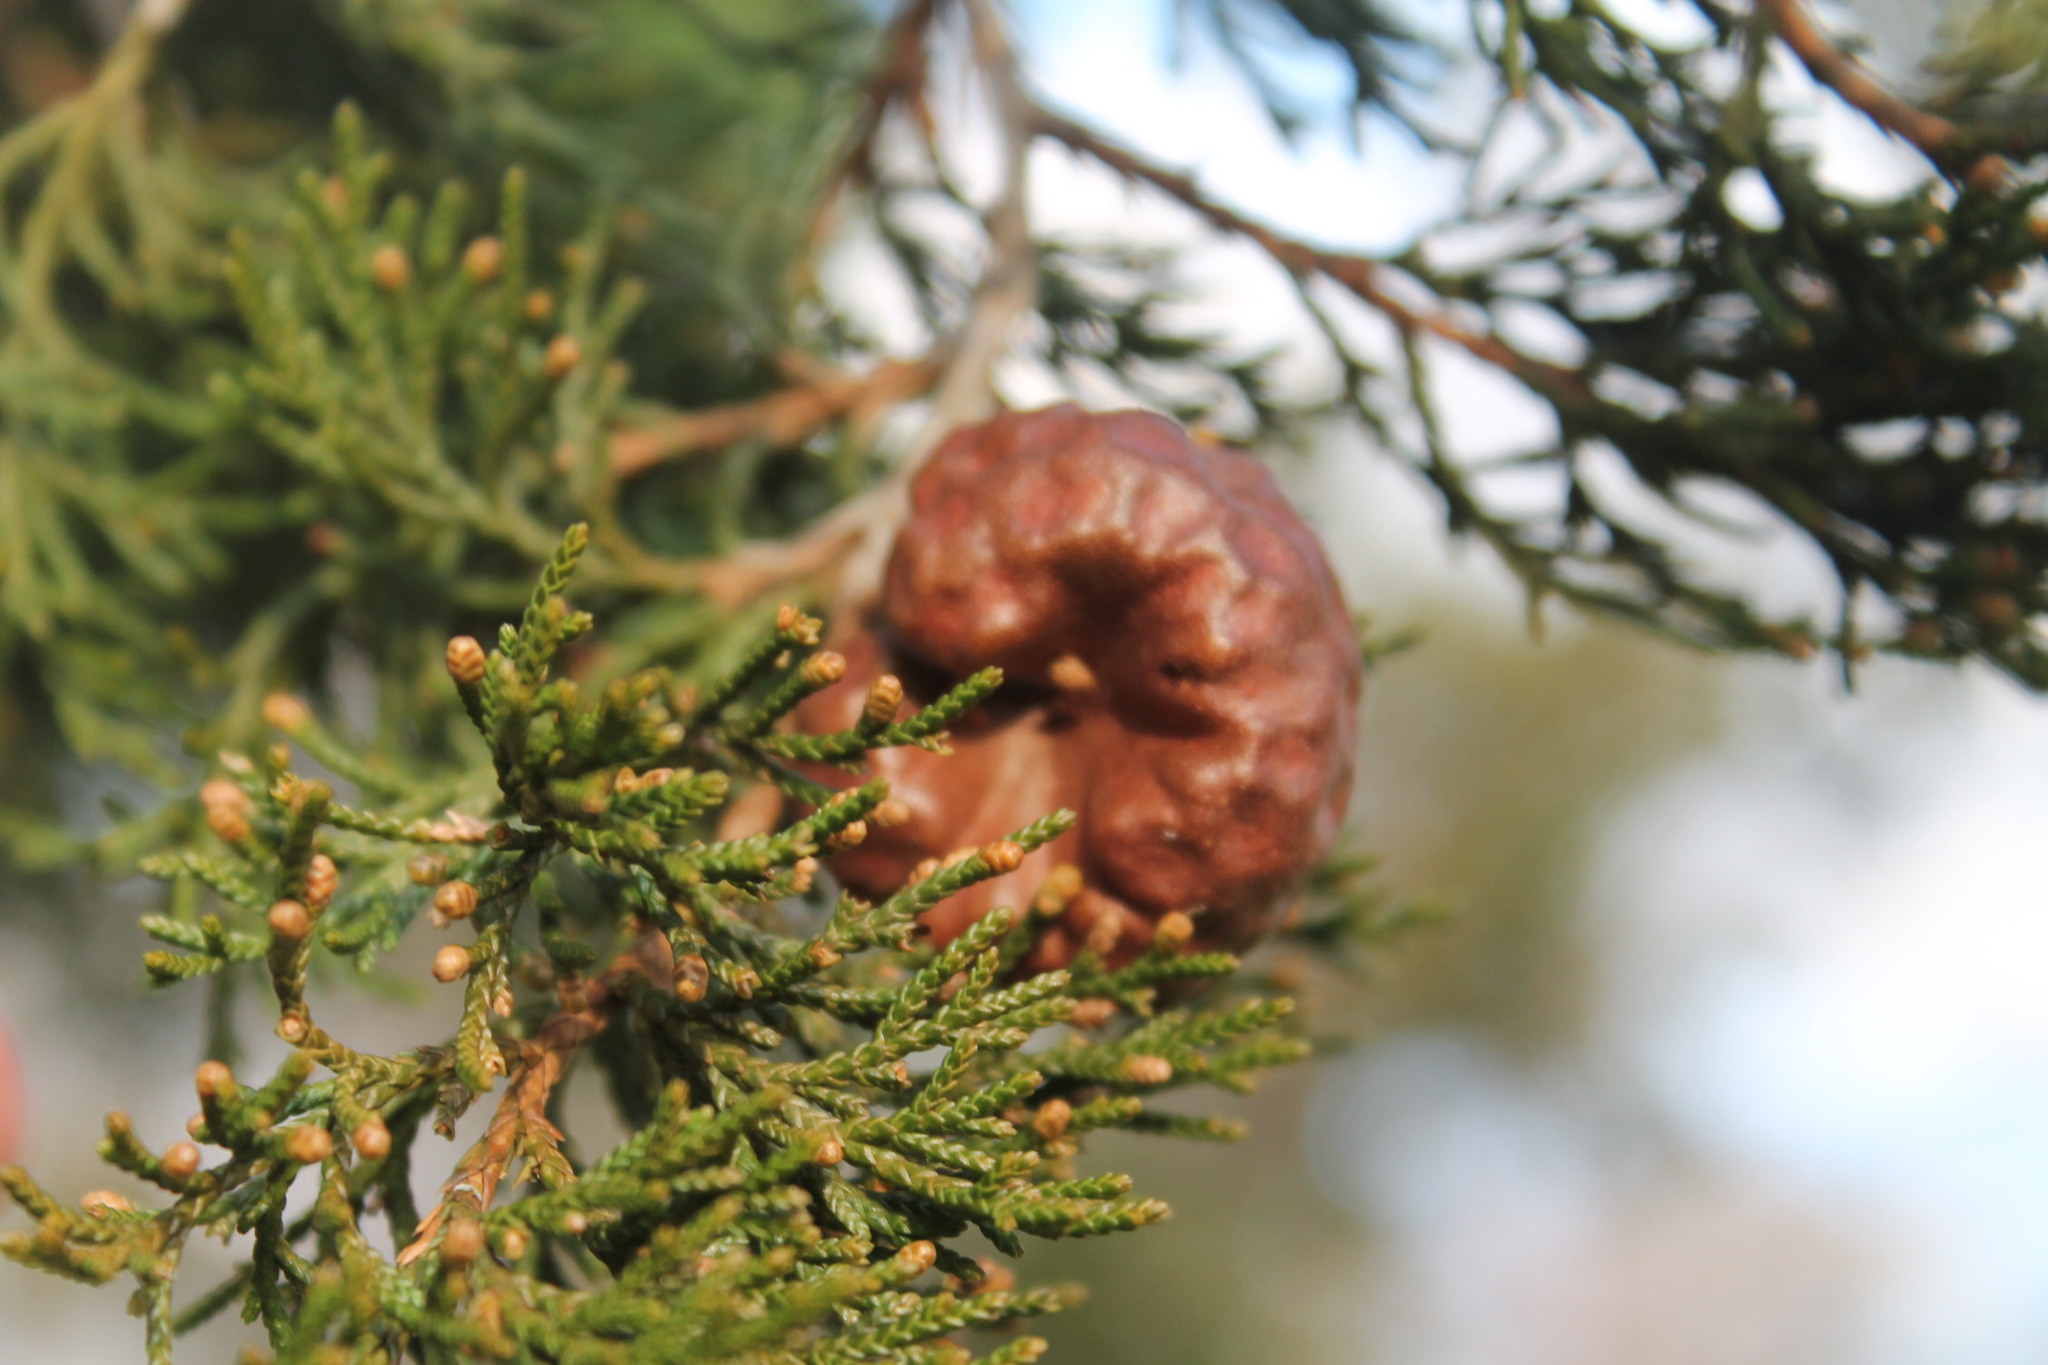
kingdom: Fungi
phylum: Basidiomycota
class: Pucciniomycetes
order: Pucciniales
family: Gymnosporangiaceae
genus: Gymnosporangium
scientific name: Gymnosporangium juniperi-virginianae
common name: Juniper-apple rust
